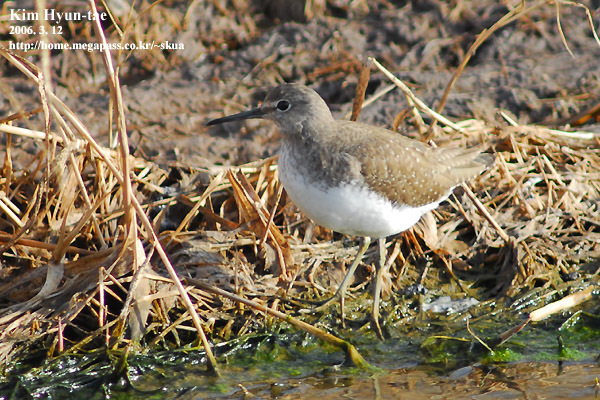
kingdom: Animalia
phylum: Chordata
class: Aves
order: Charadriiformes
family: Scolopacidae
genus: Tringa
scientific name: Tringa ochropus
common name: Green sandpiper
